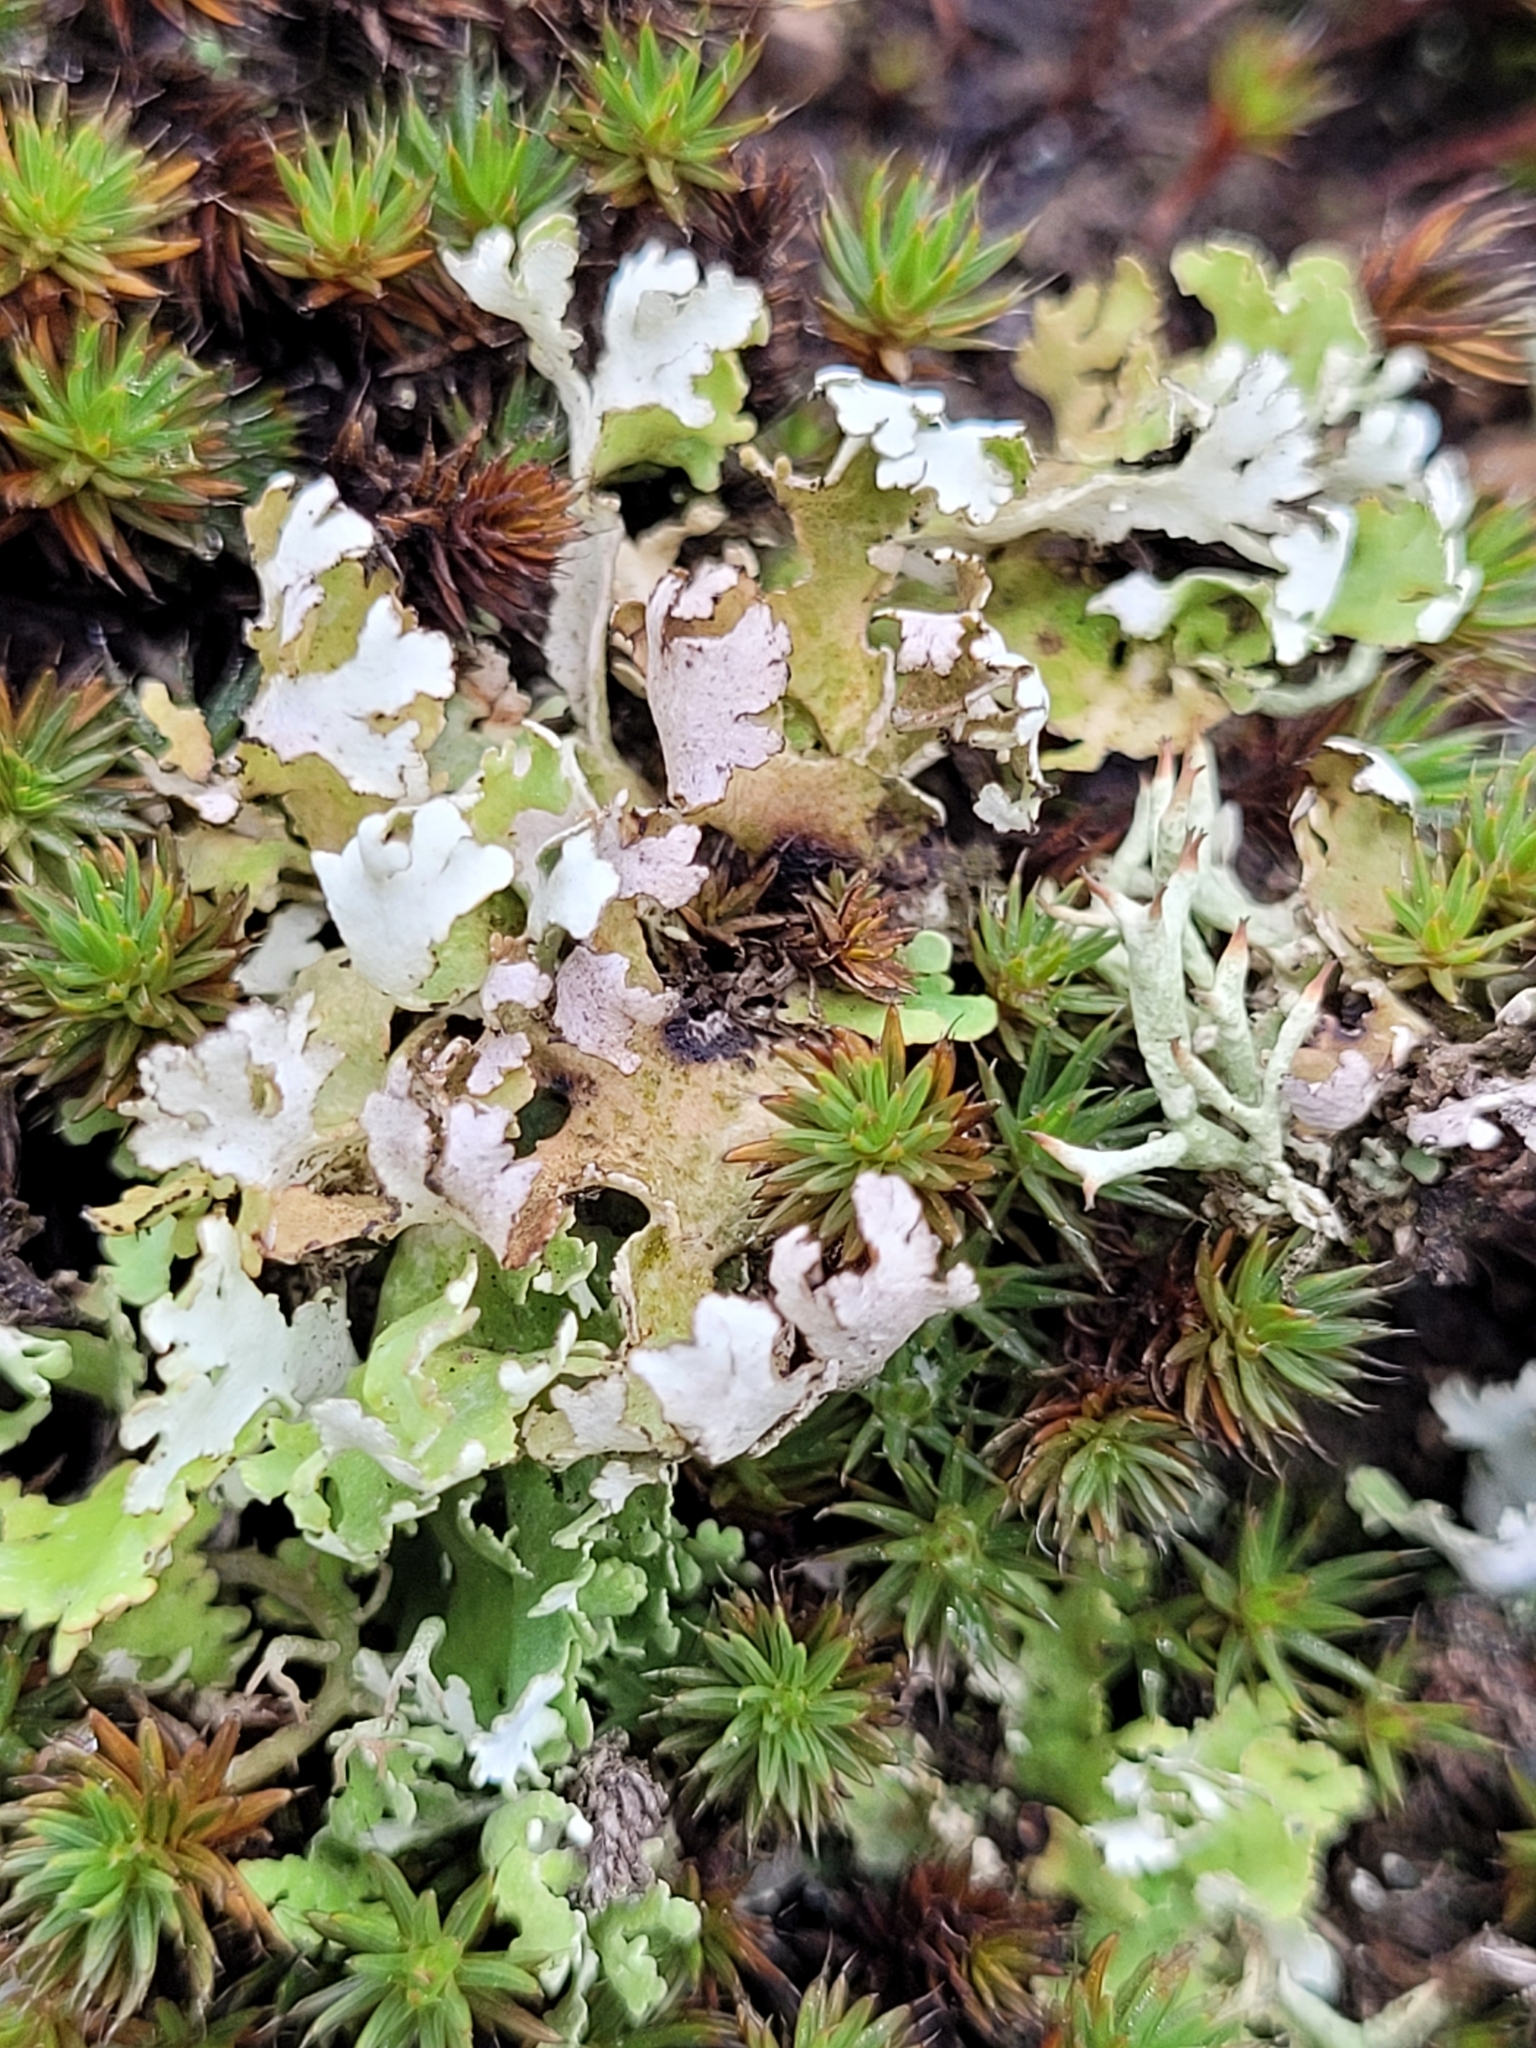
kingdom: Fungi
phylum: Ascomycota
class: Lecanoromycetes
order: Lecanorales
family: Cladoniaceae
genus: Cladonia
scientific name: Cladonia foliacea
